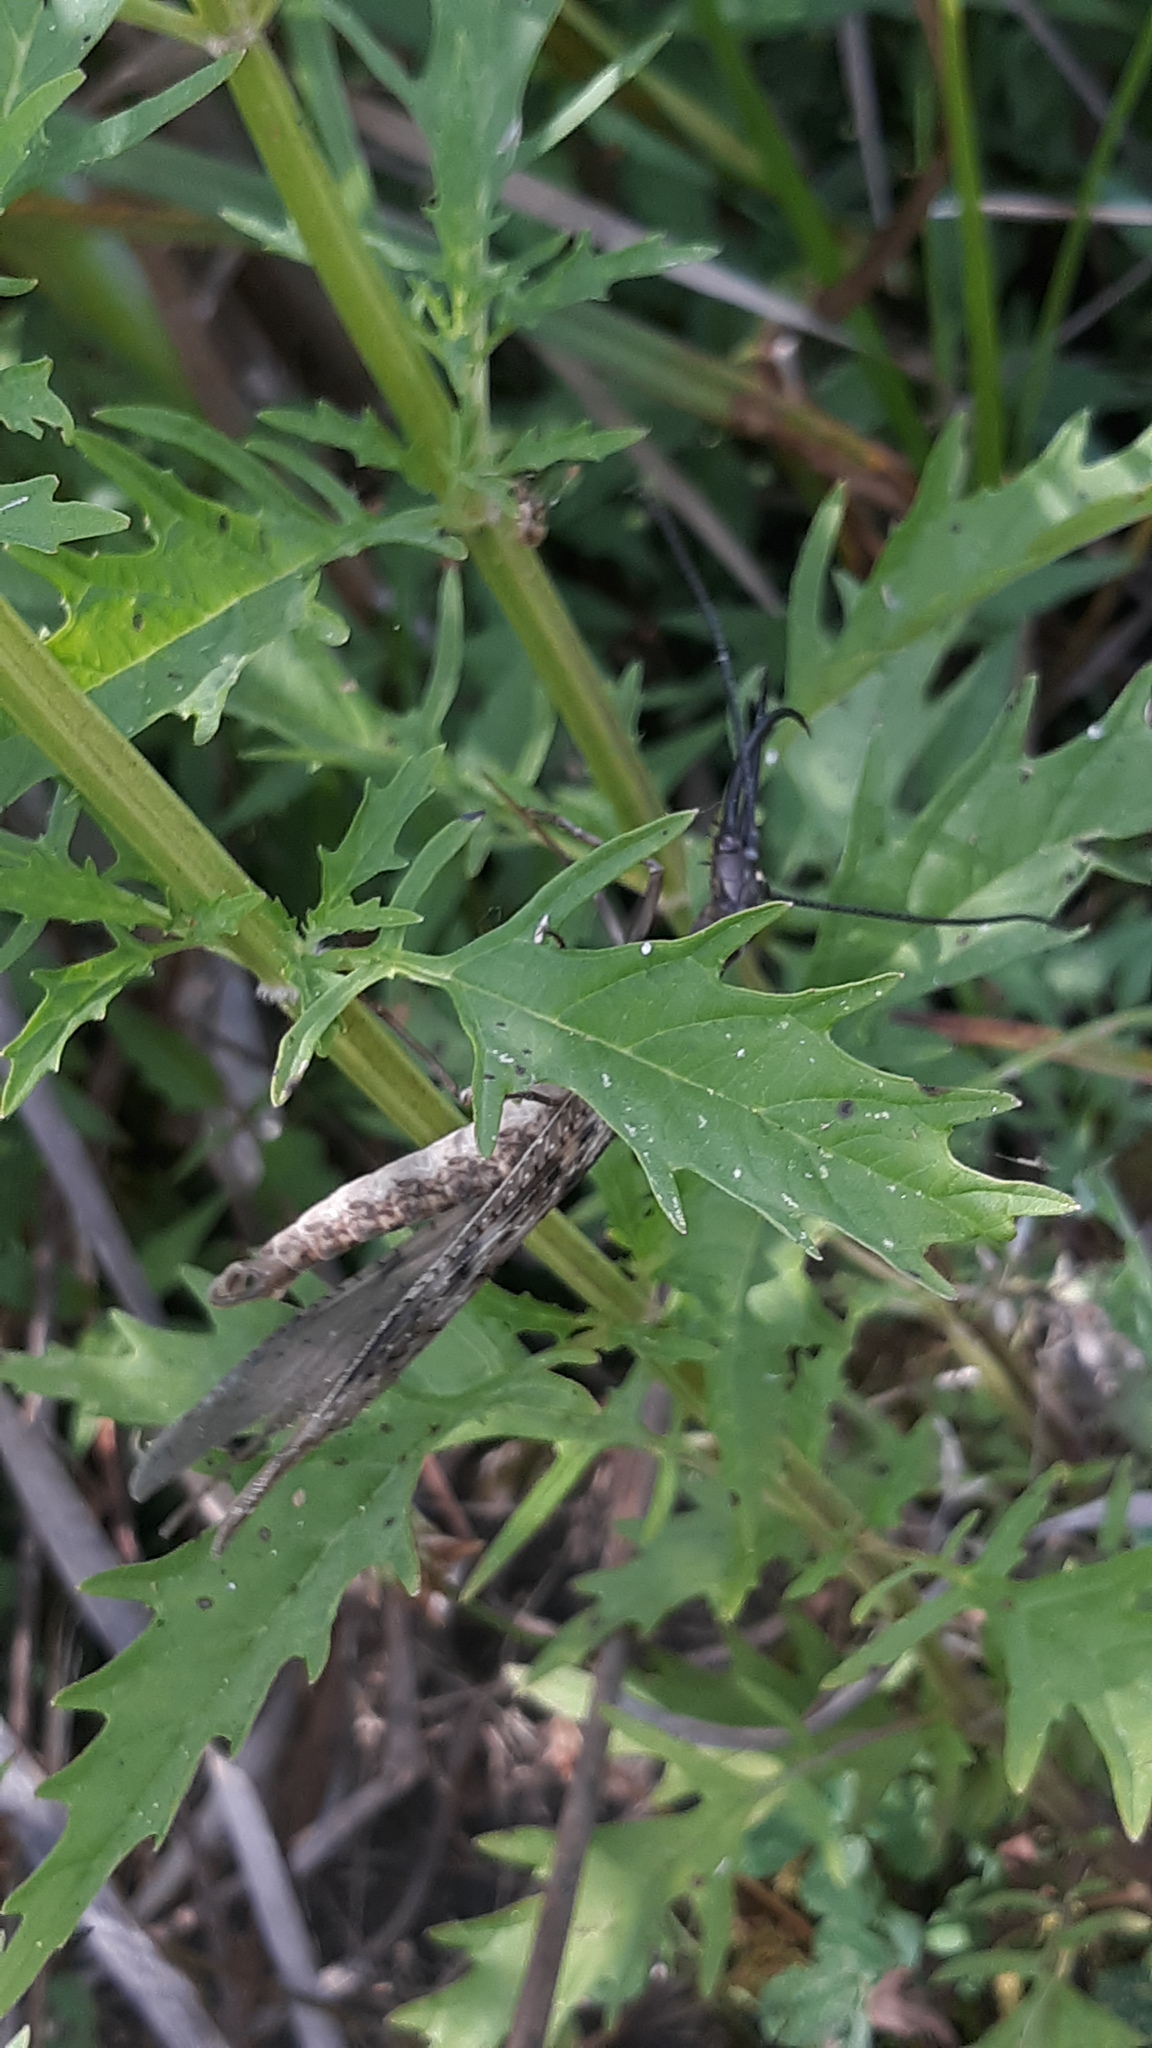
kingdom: Animalia
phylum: Arthropoda
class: Insecta
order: Megaloptera
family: Corydalidae
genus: Corydalus
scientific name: Corydalus cornutus
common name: Dobsonfly
